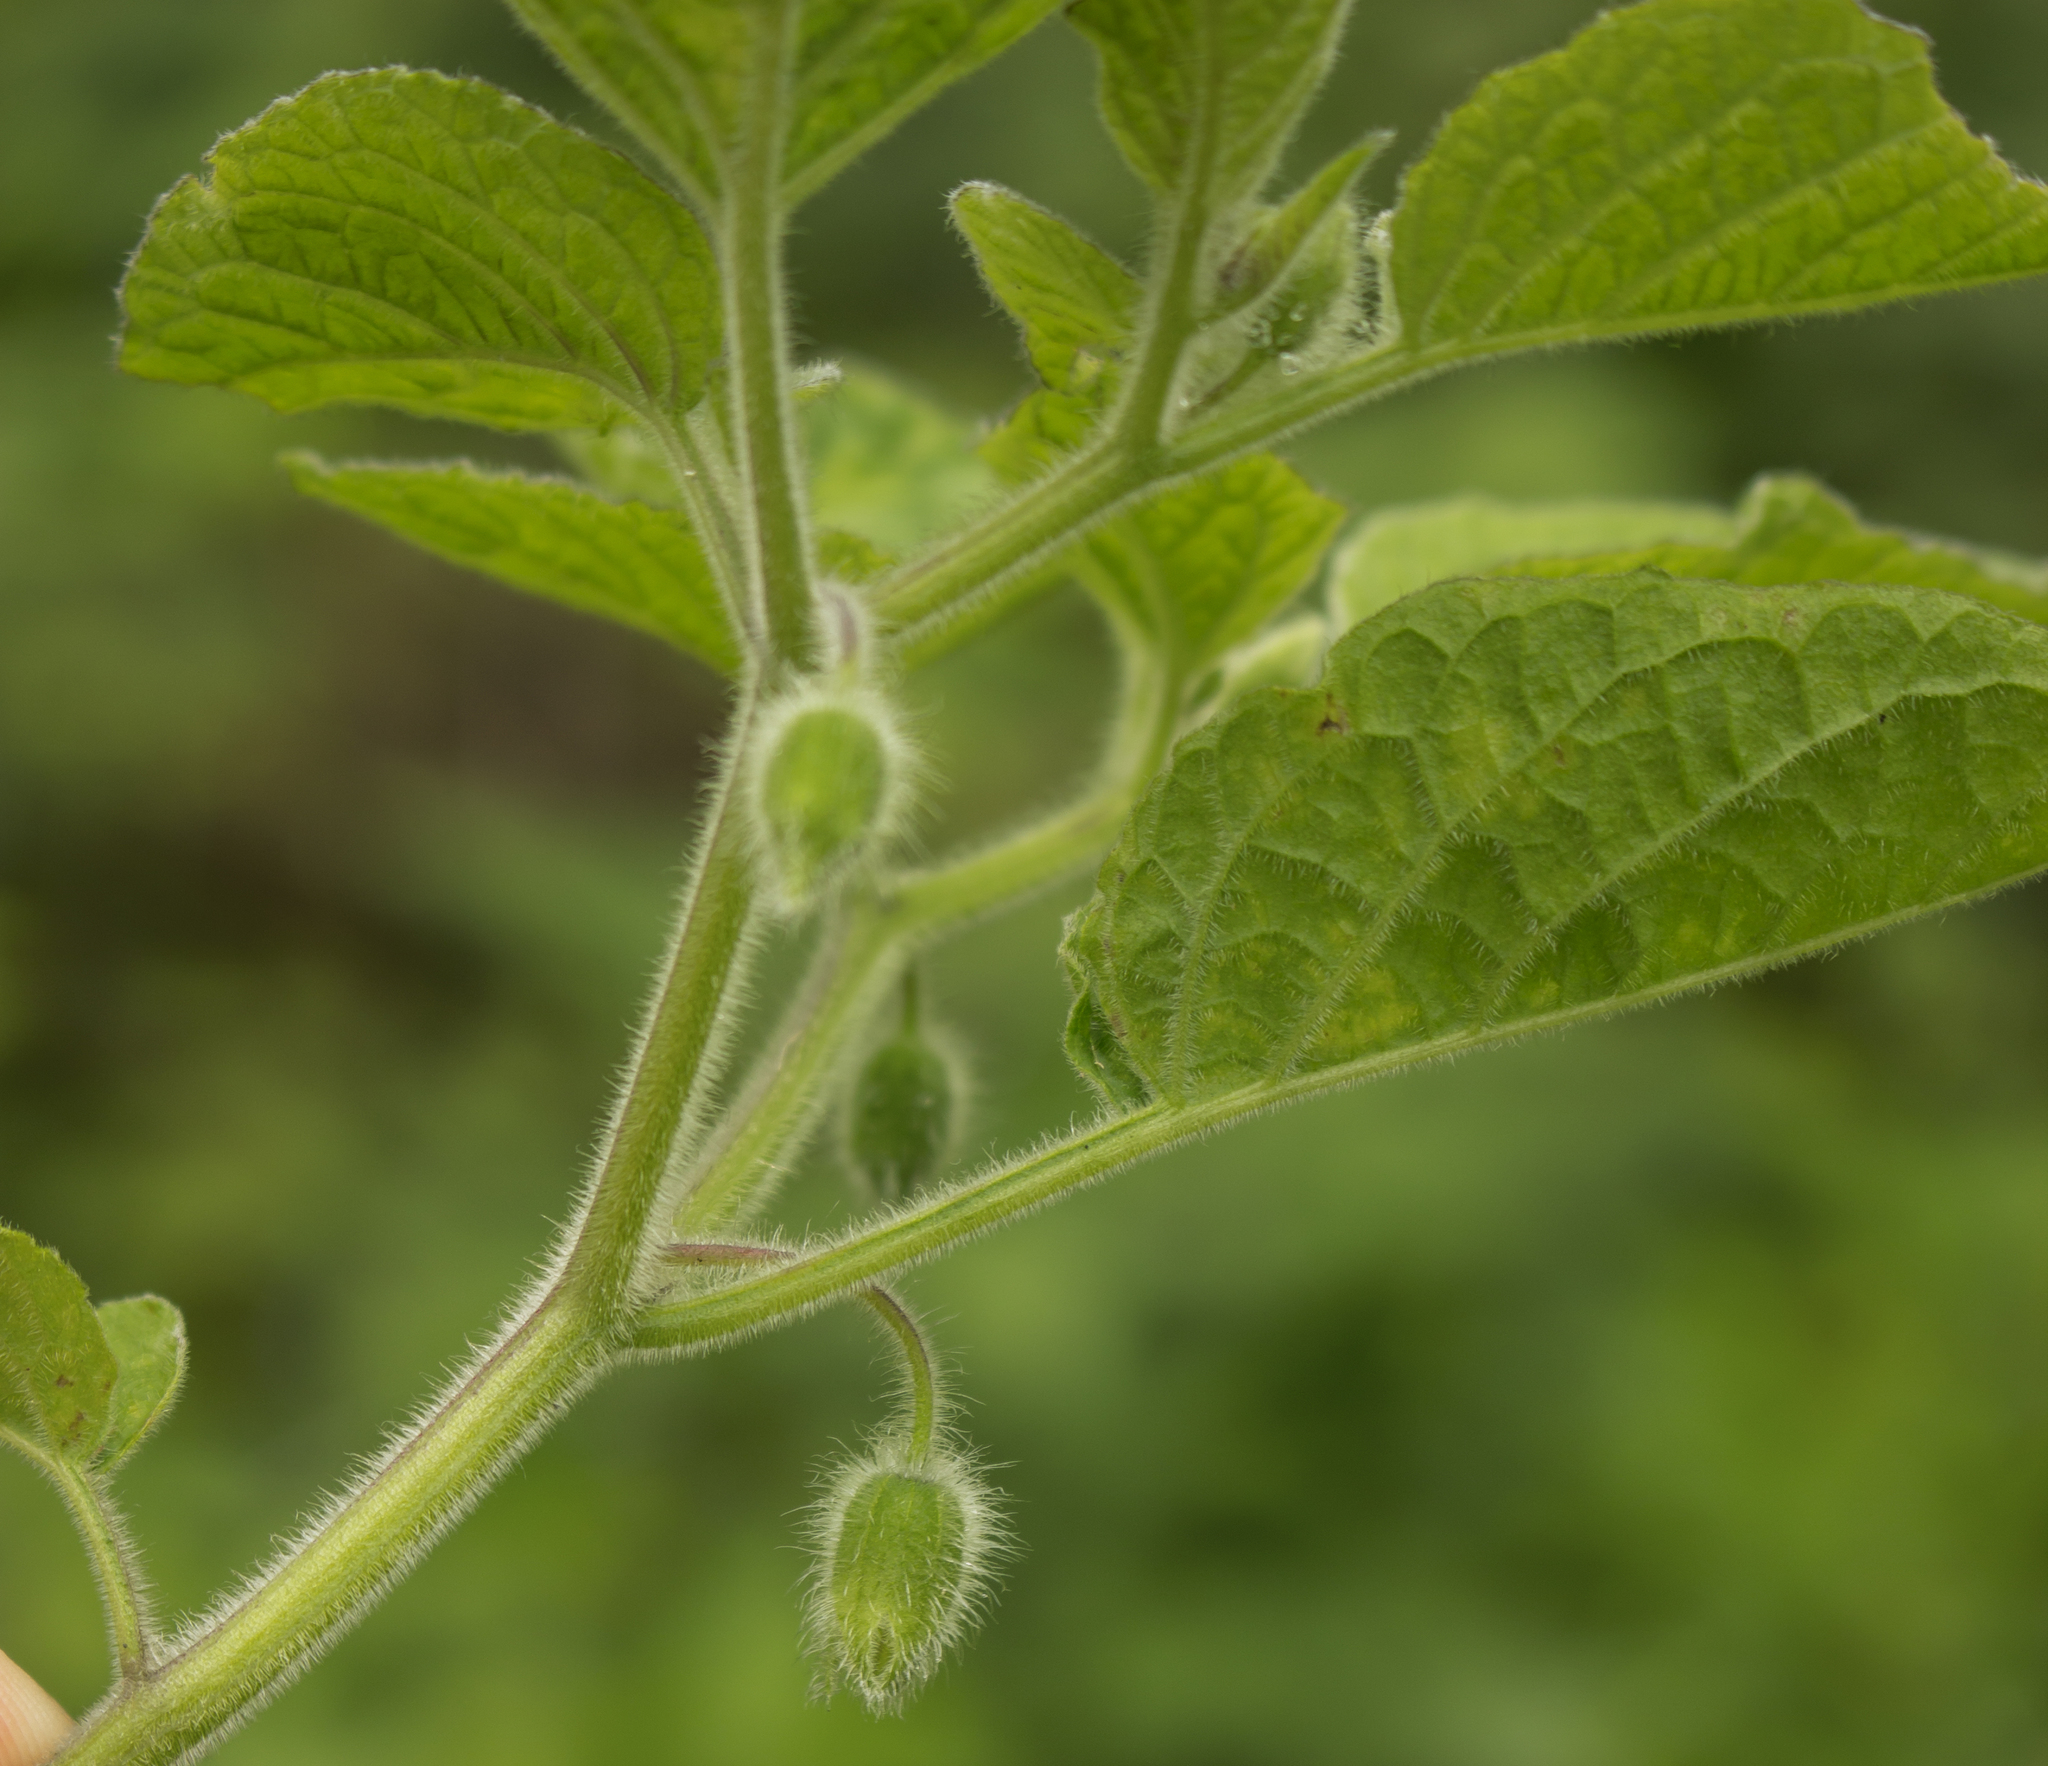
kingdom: Plantae
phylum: Tracheophyta
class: Magnoliopsida
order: Solanales
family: Solanaceae
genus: Physalis
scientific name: Physalis heterophylla
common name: Clammy ground-cherry
